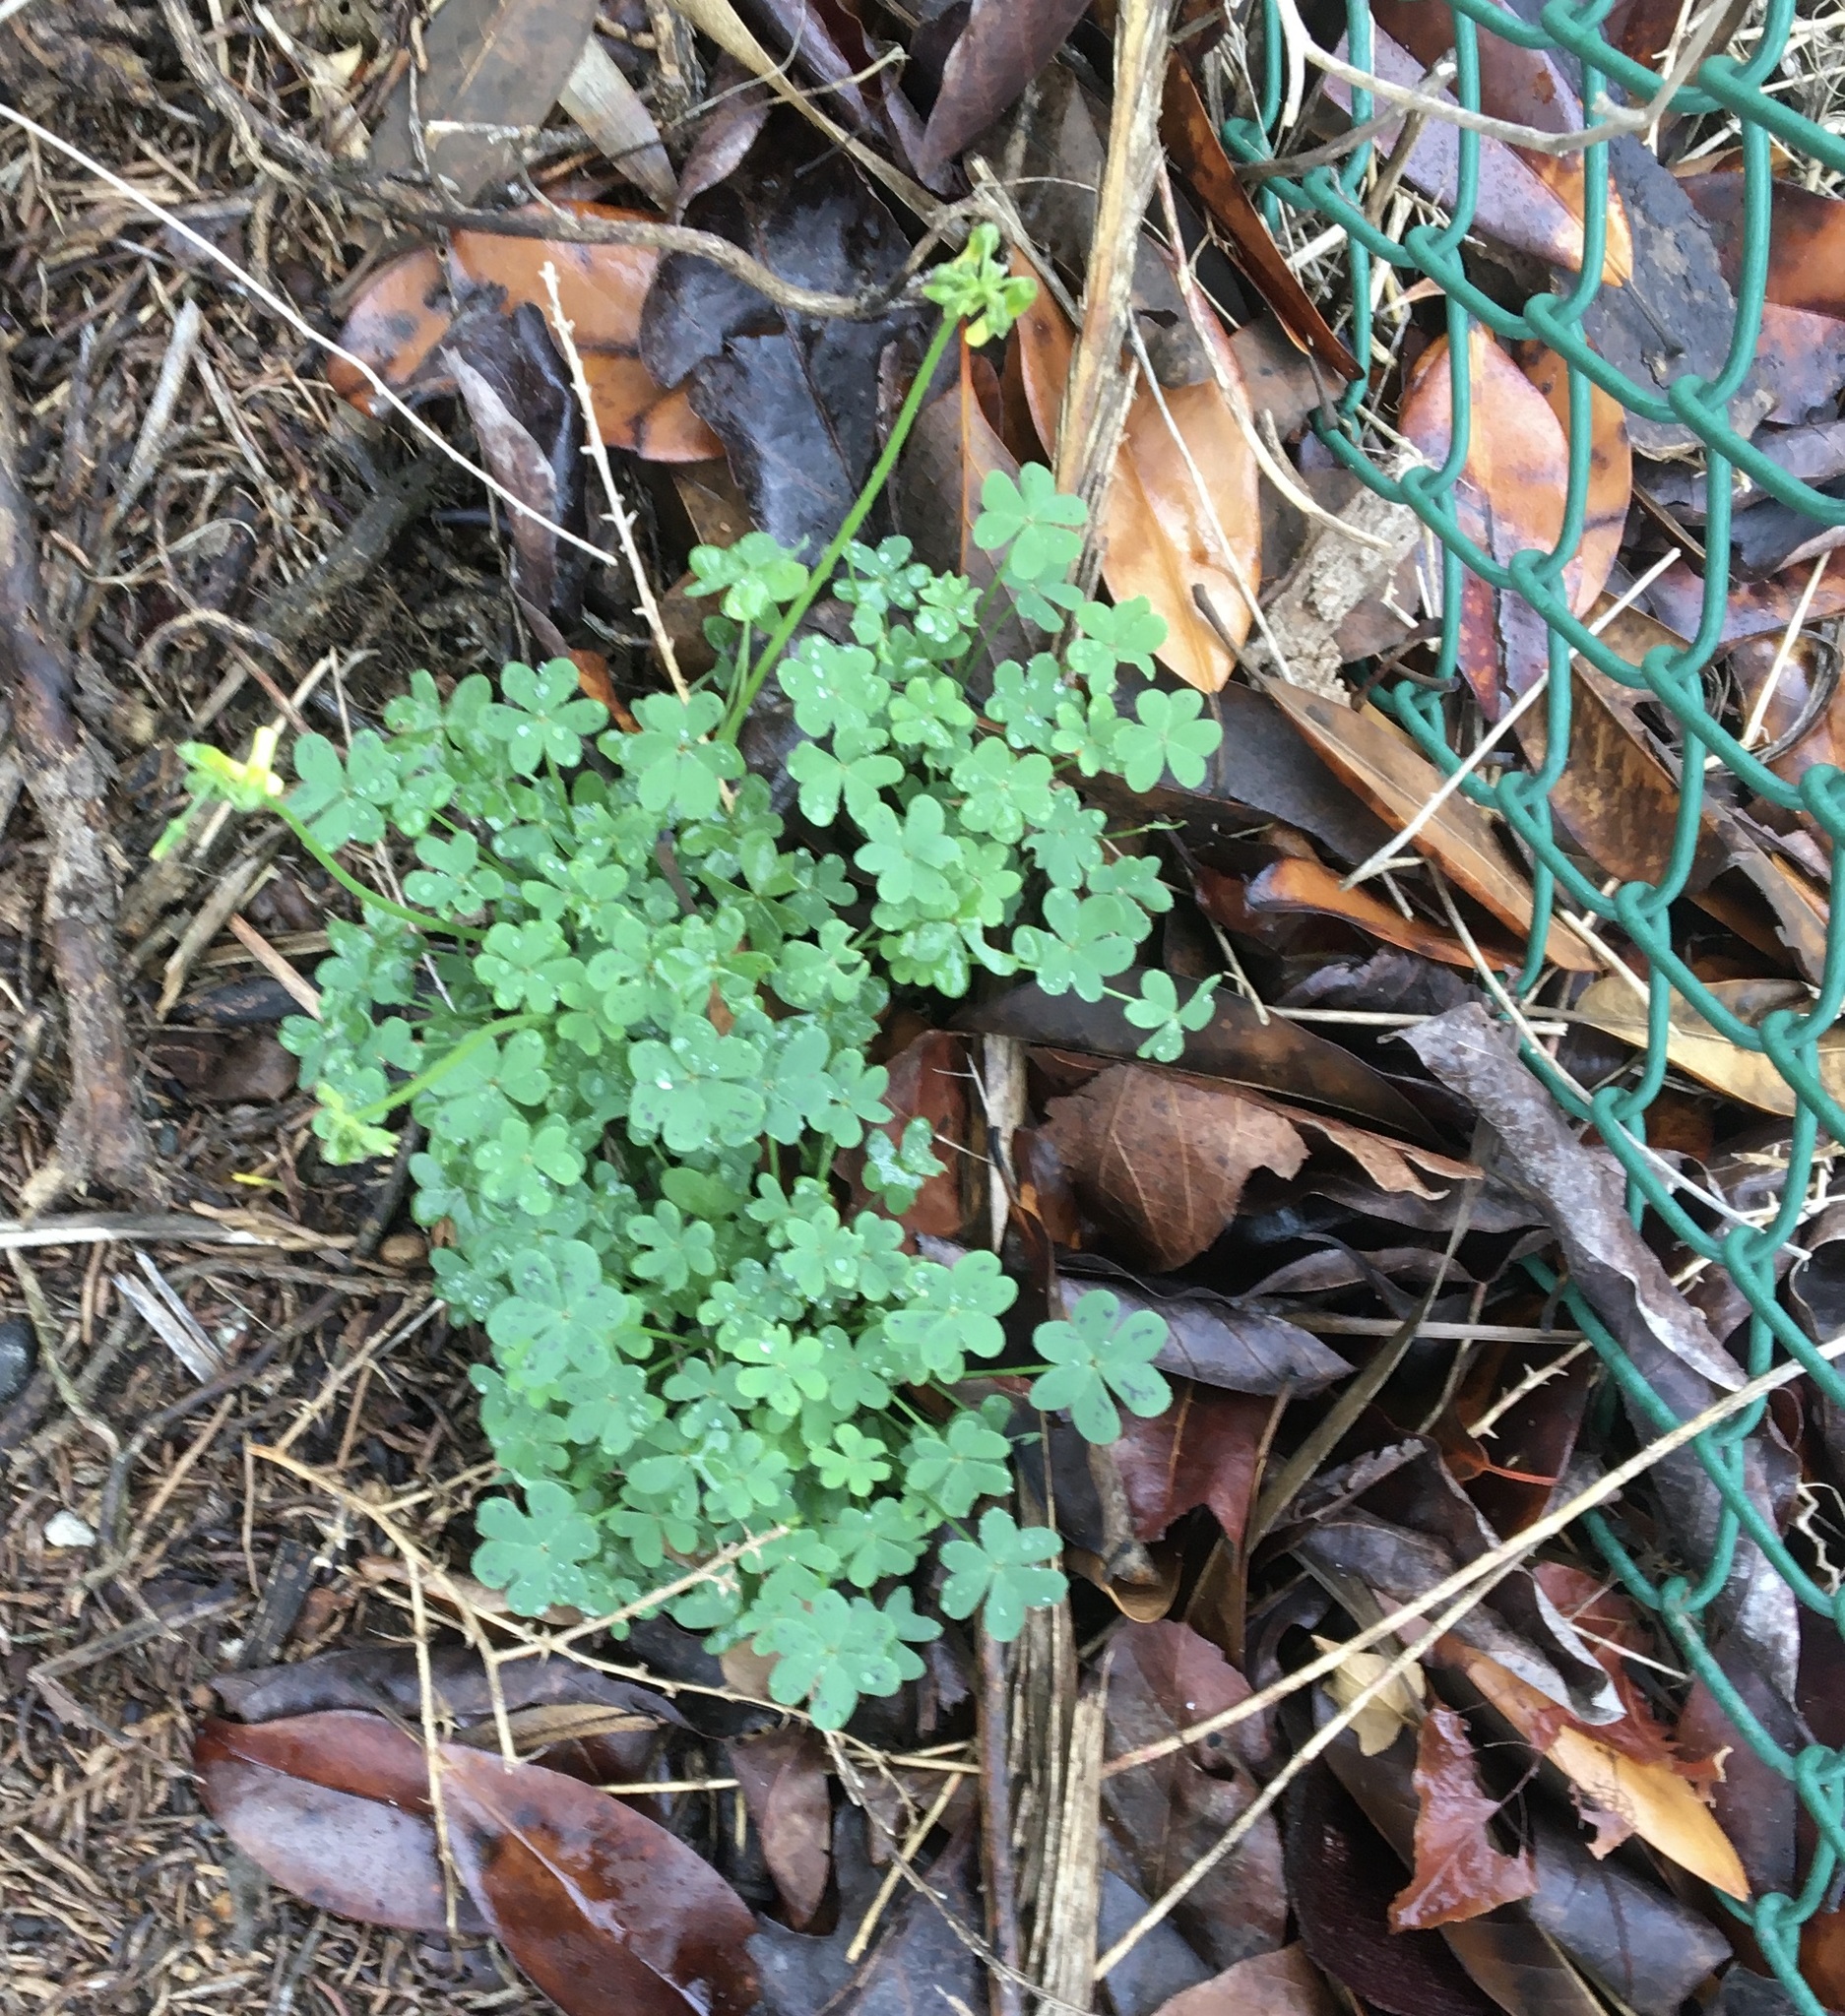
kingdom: Plantae
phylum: Tracheophyta
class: Magnoliopsida
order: Oxalidales
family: Oxalidaceae
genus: Oxalis
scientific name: Oxalis pes-caprae
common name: Bermuda-buttercup
